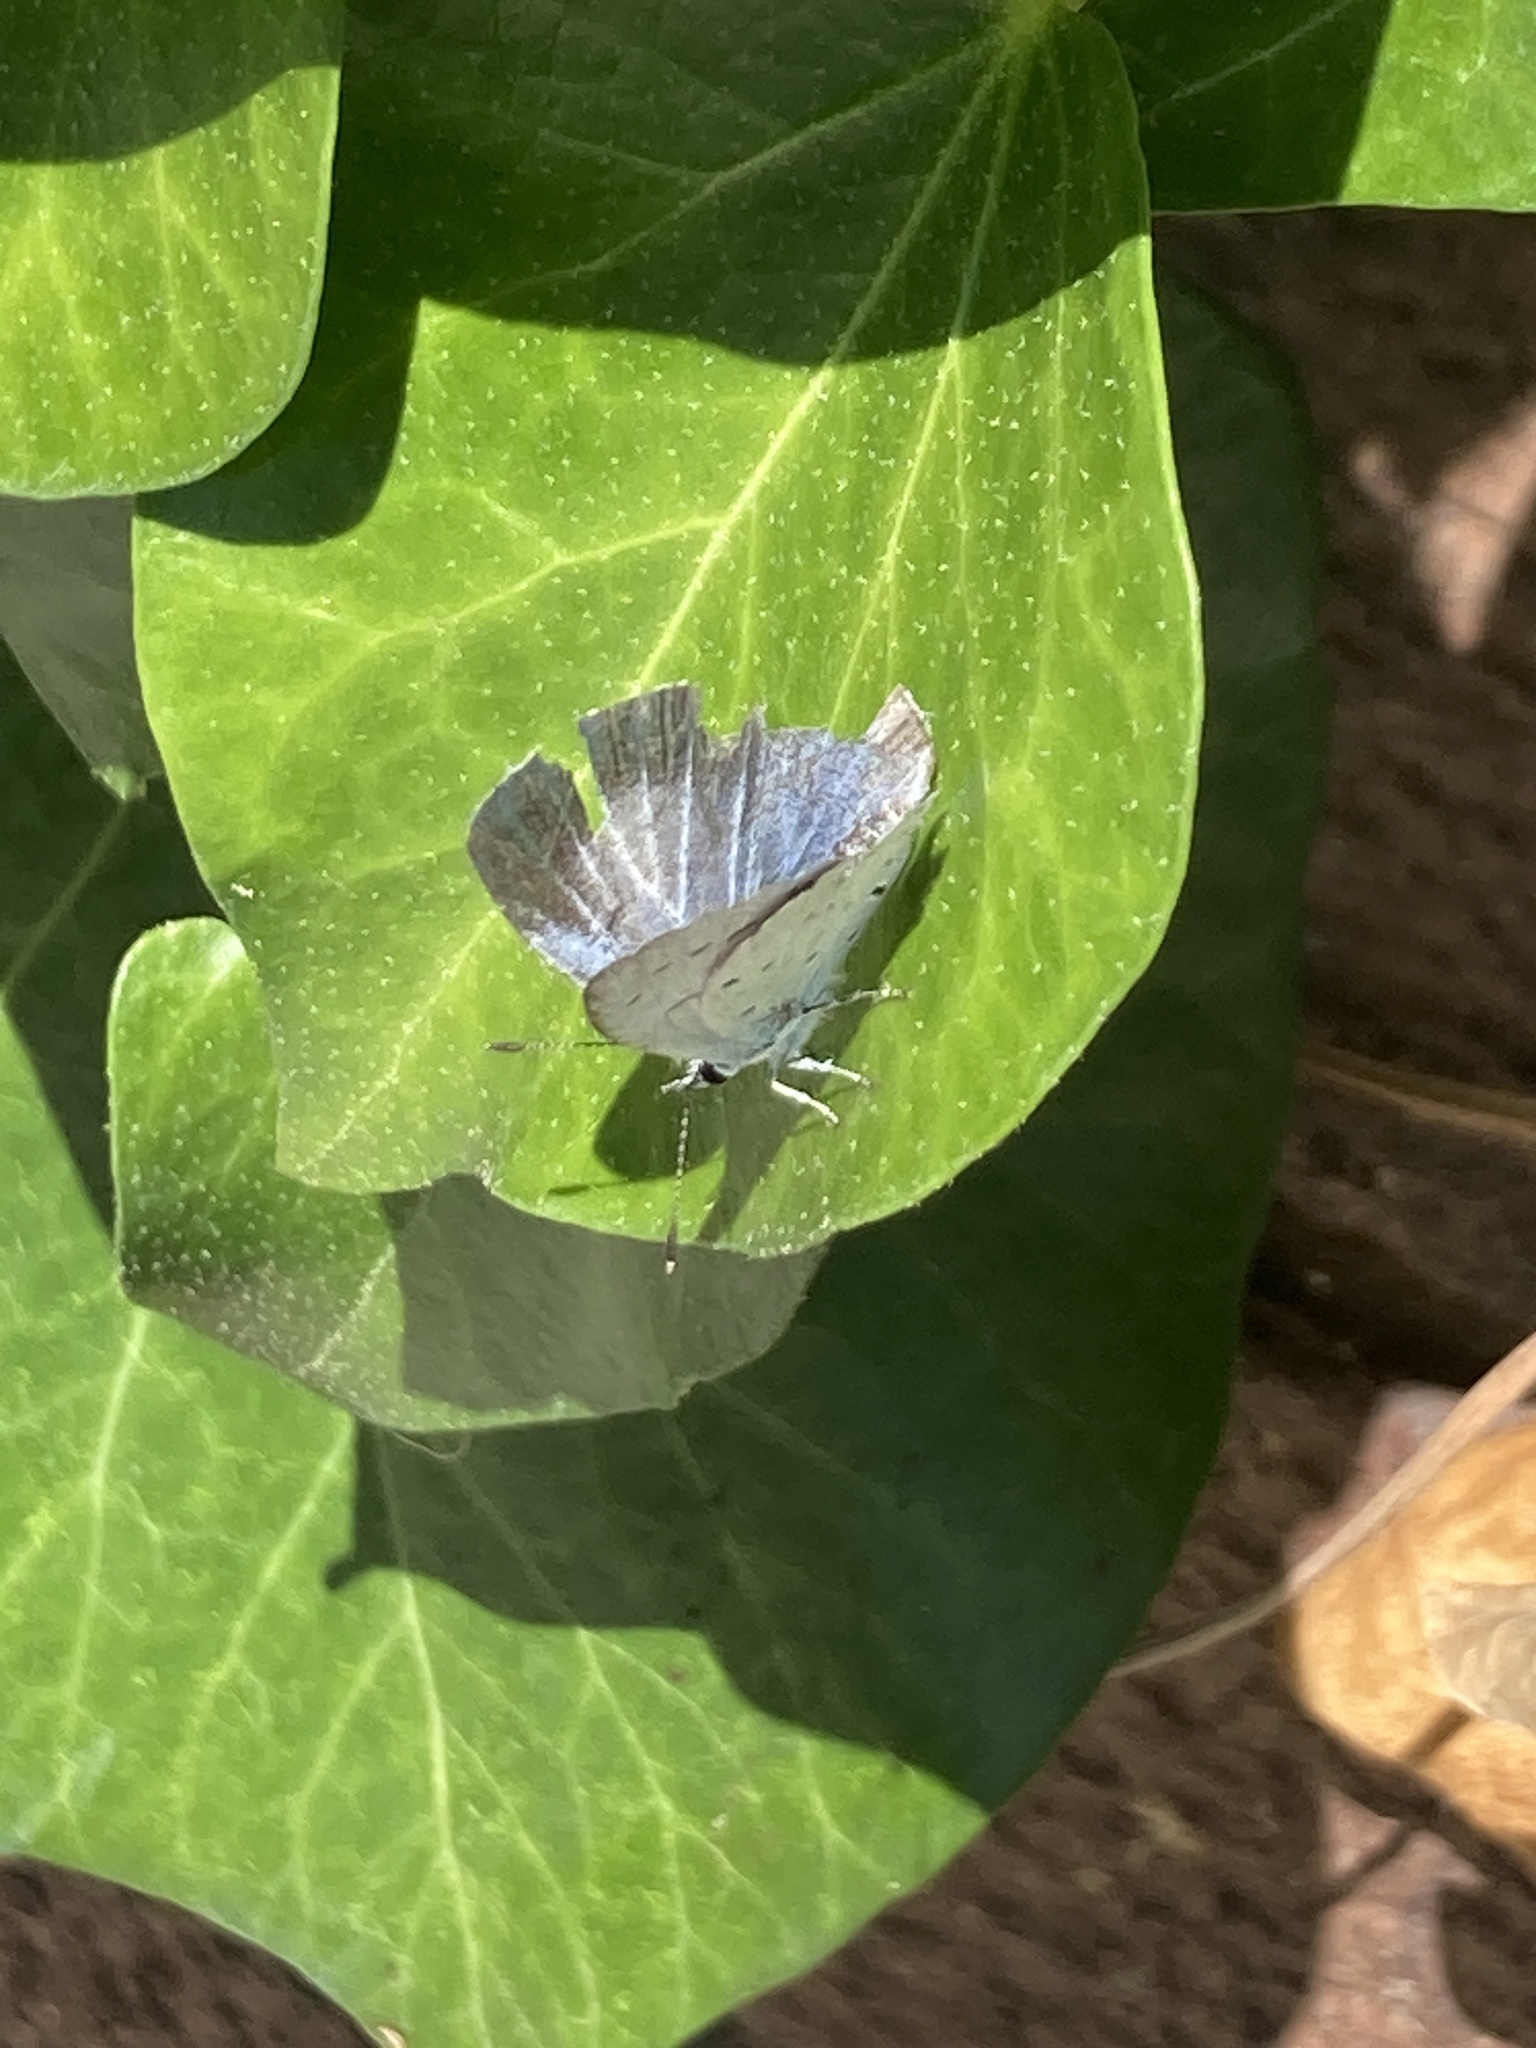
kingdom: Animalia
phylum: Arthropoda
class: Insecta
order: Lepidoptera
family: Lycaenidae
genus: Celastrina
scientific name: Celastrina argiolus
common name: Holly blue
